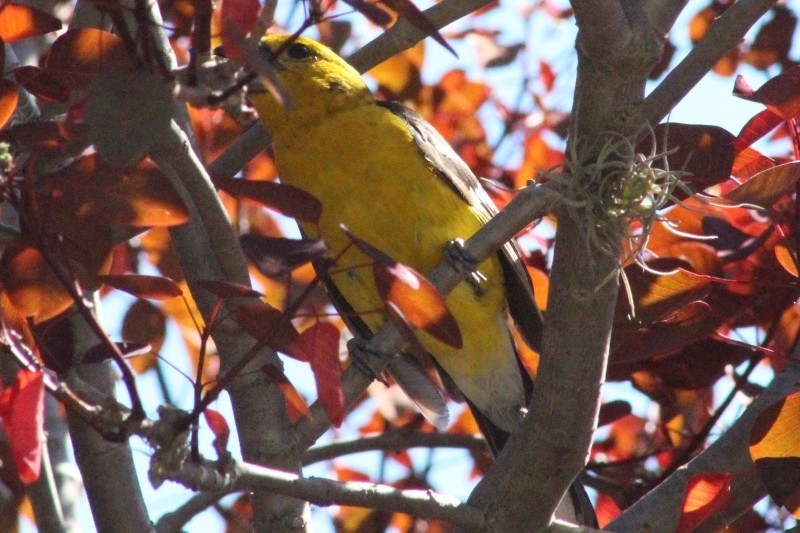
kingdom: Animalia
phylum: Chordata
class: Aves
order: Passeriformes
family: Cardinalidae
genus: Pheucticus
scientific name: Pheucticus chrysogaster
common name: Golden grosbeak
